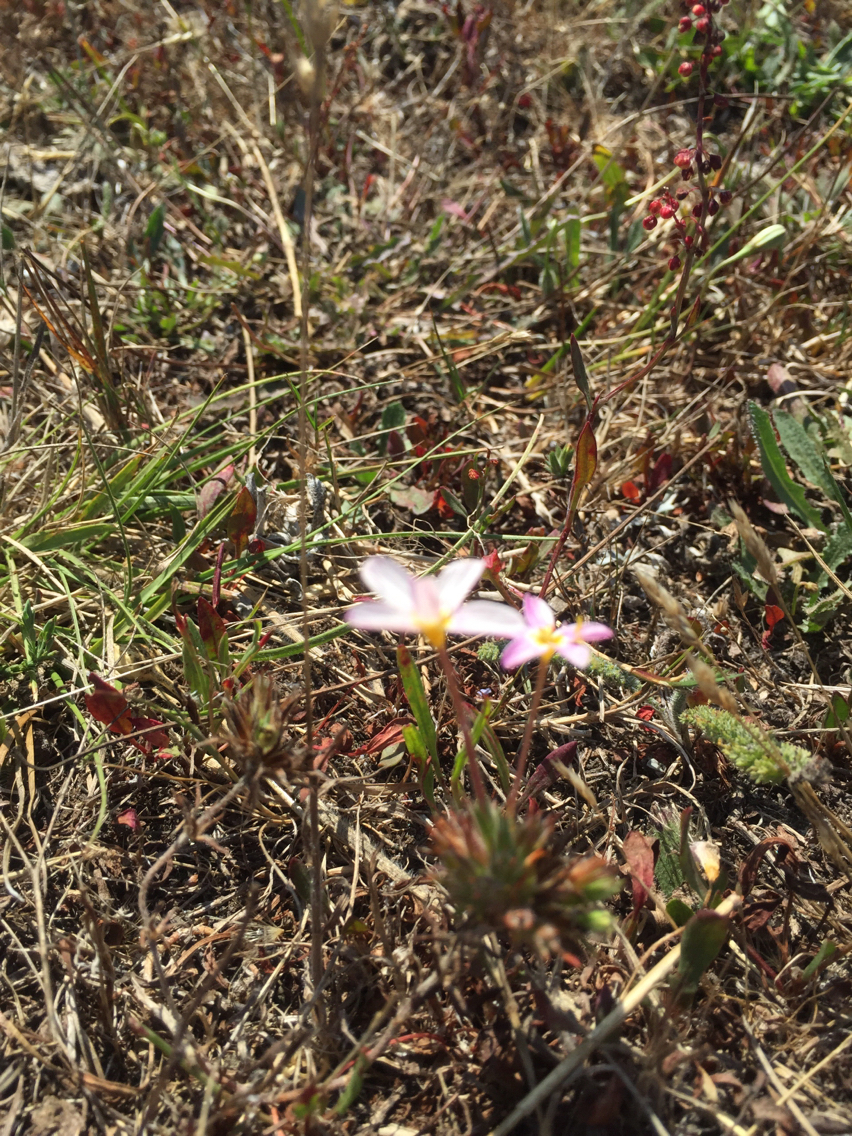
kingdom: Plantae
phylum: Tracheophyta
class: Magnoliopsida
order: Ericales
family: Polemoniaceae
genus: Leptosiphon
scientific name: Leptosiphon parviflorus
